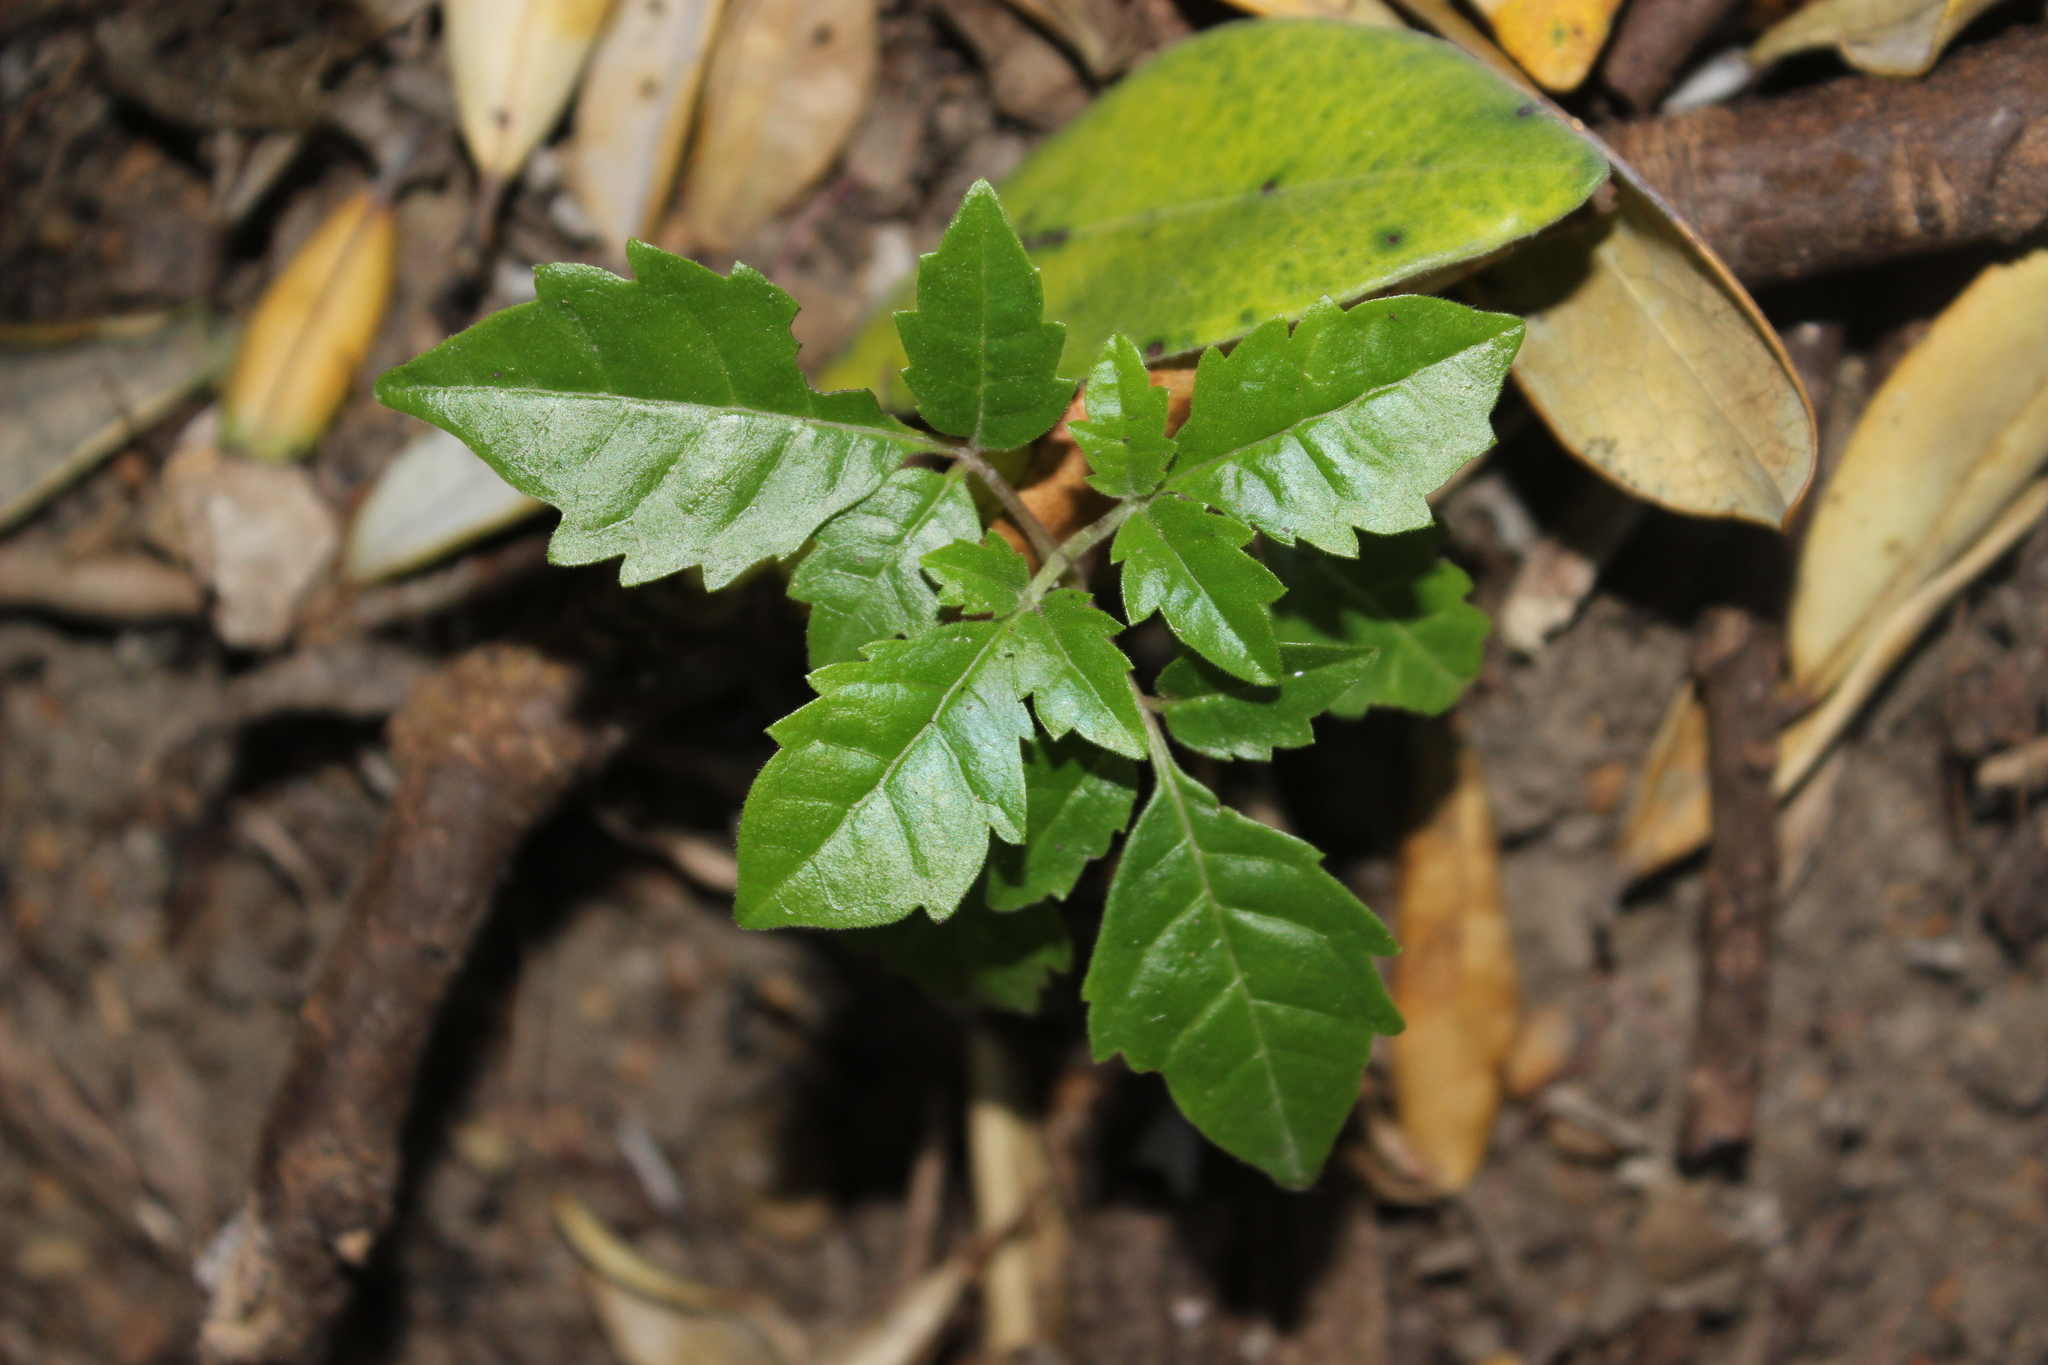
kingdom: Plantae
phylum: Tracheophyta
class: Magnoliopsida
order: Lamiales
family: Lamiaceae
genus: Vitex
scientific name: Vitex lucens
